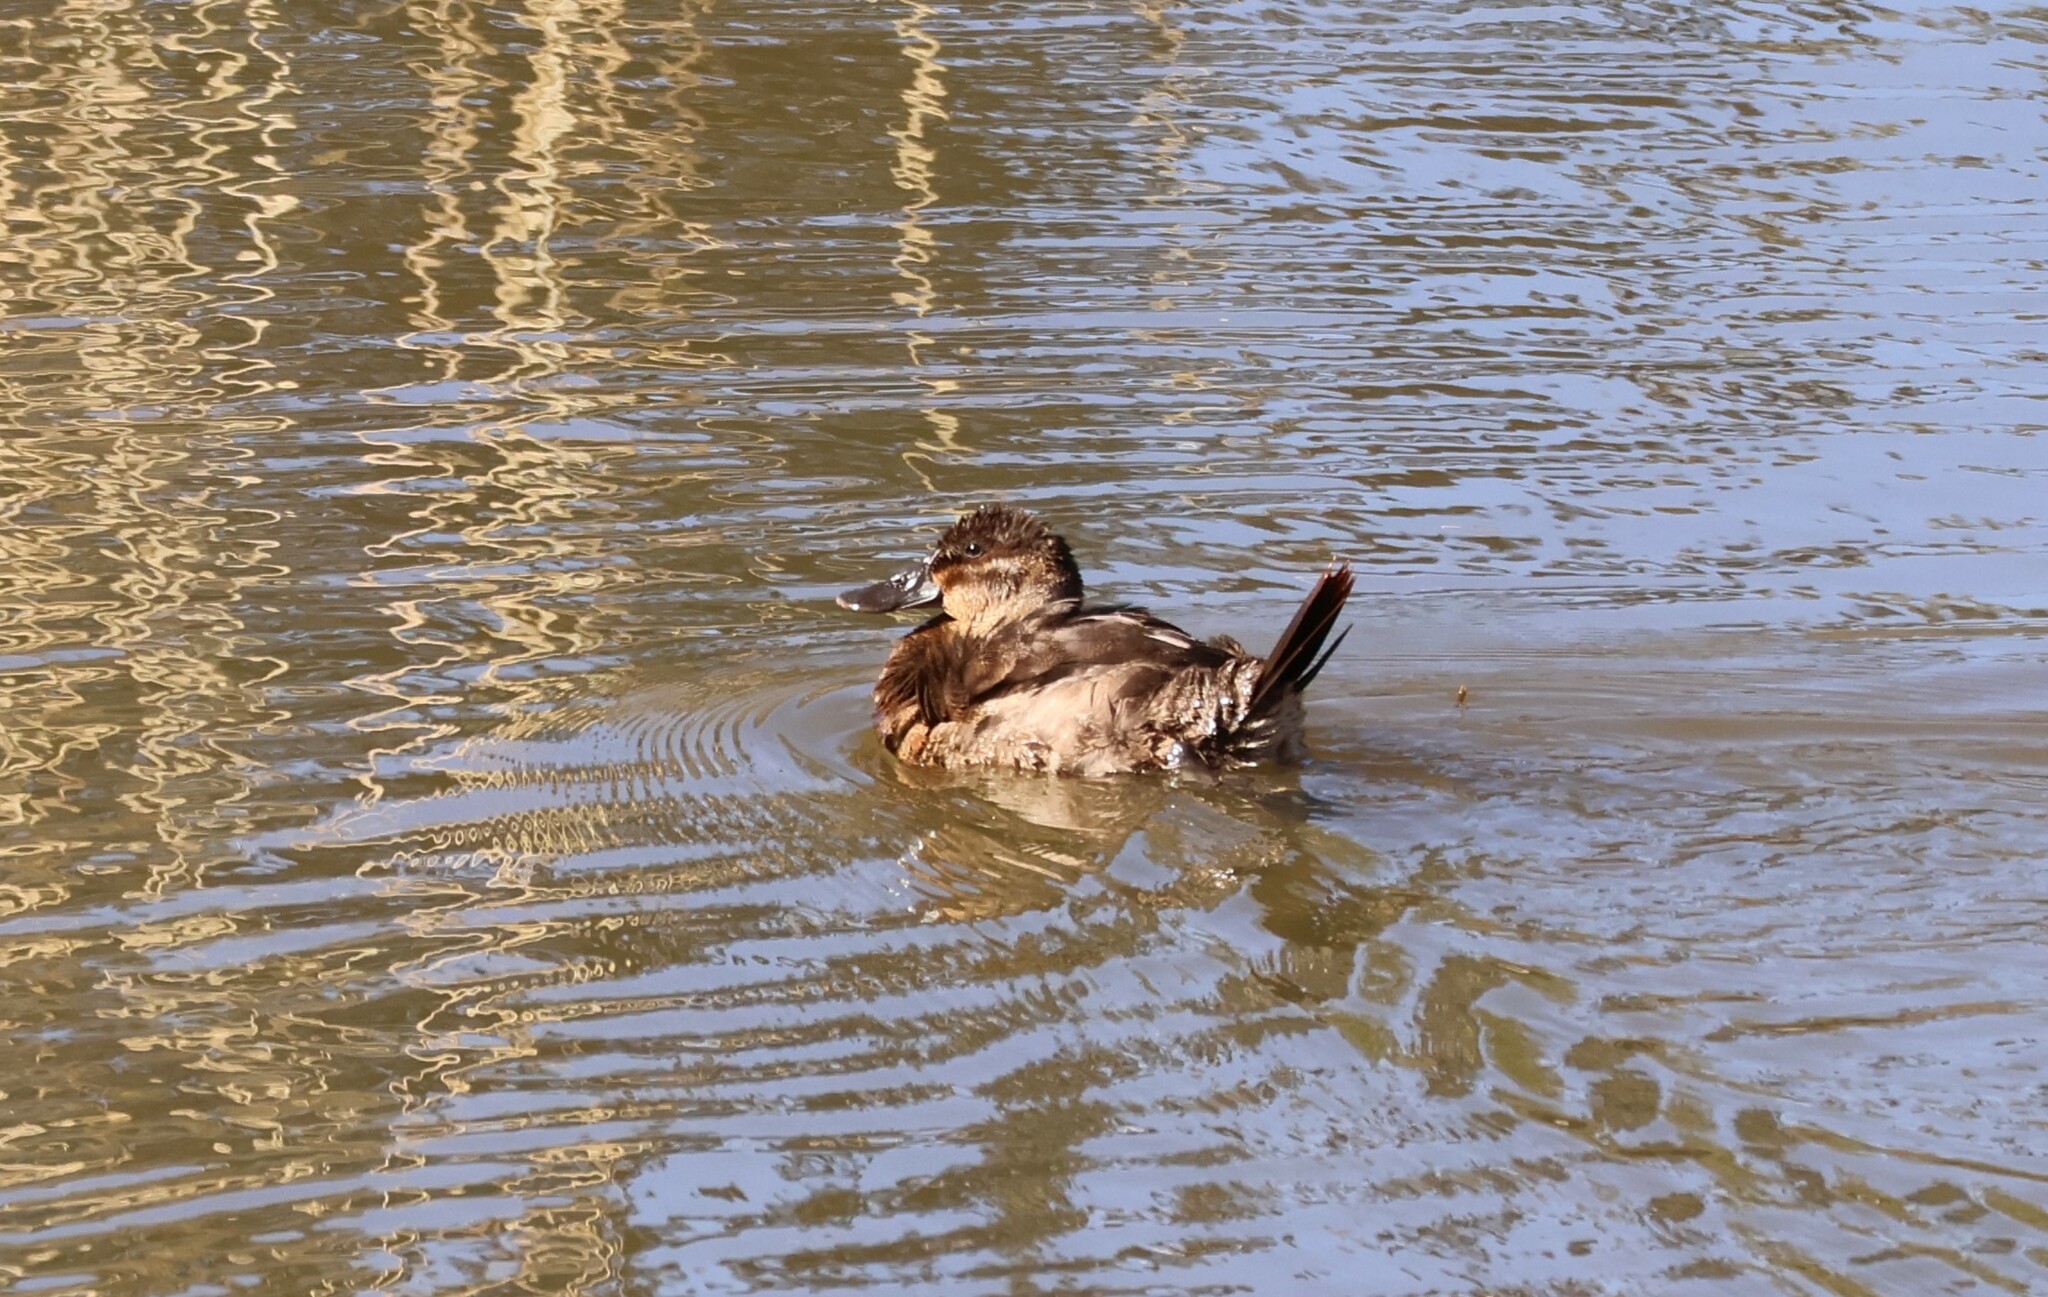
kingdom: Animalia
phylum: Chordata
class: Aves
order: Anseriformes
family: Anatidae
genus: Oxyura
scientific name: Oxyura jamaicensis
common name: Ruddy duck
